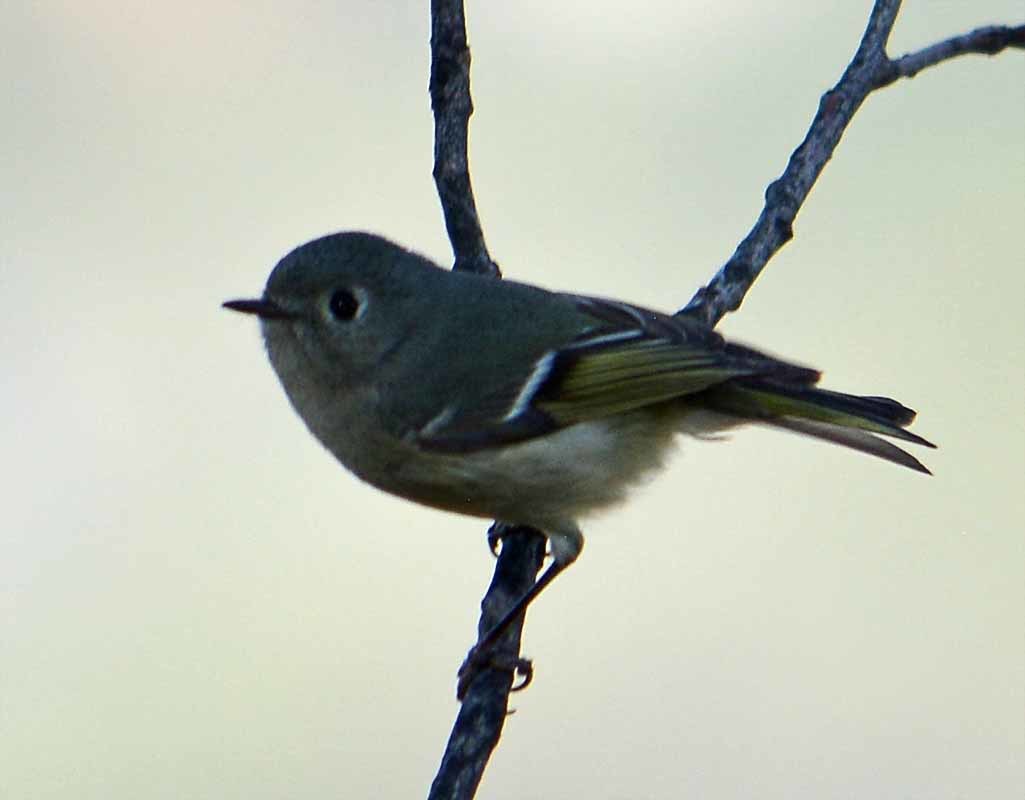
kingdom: Animalia
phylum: Chordata
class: Aves
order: Passeriformes
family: Regulidae
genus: Regulus
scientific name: Regulus calendula
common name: Ruby-crowned kinglet
